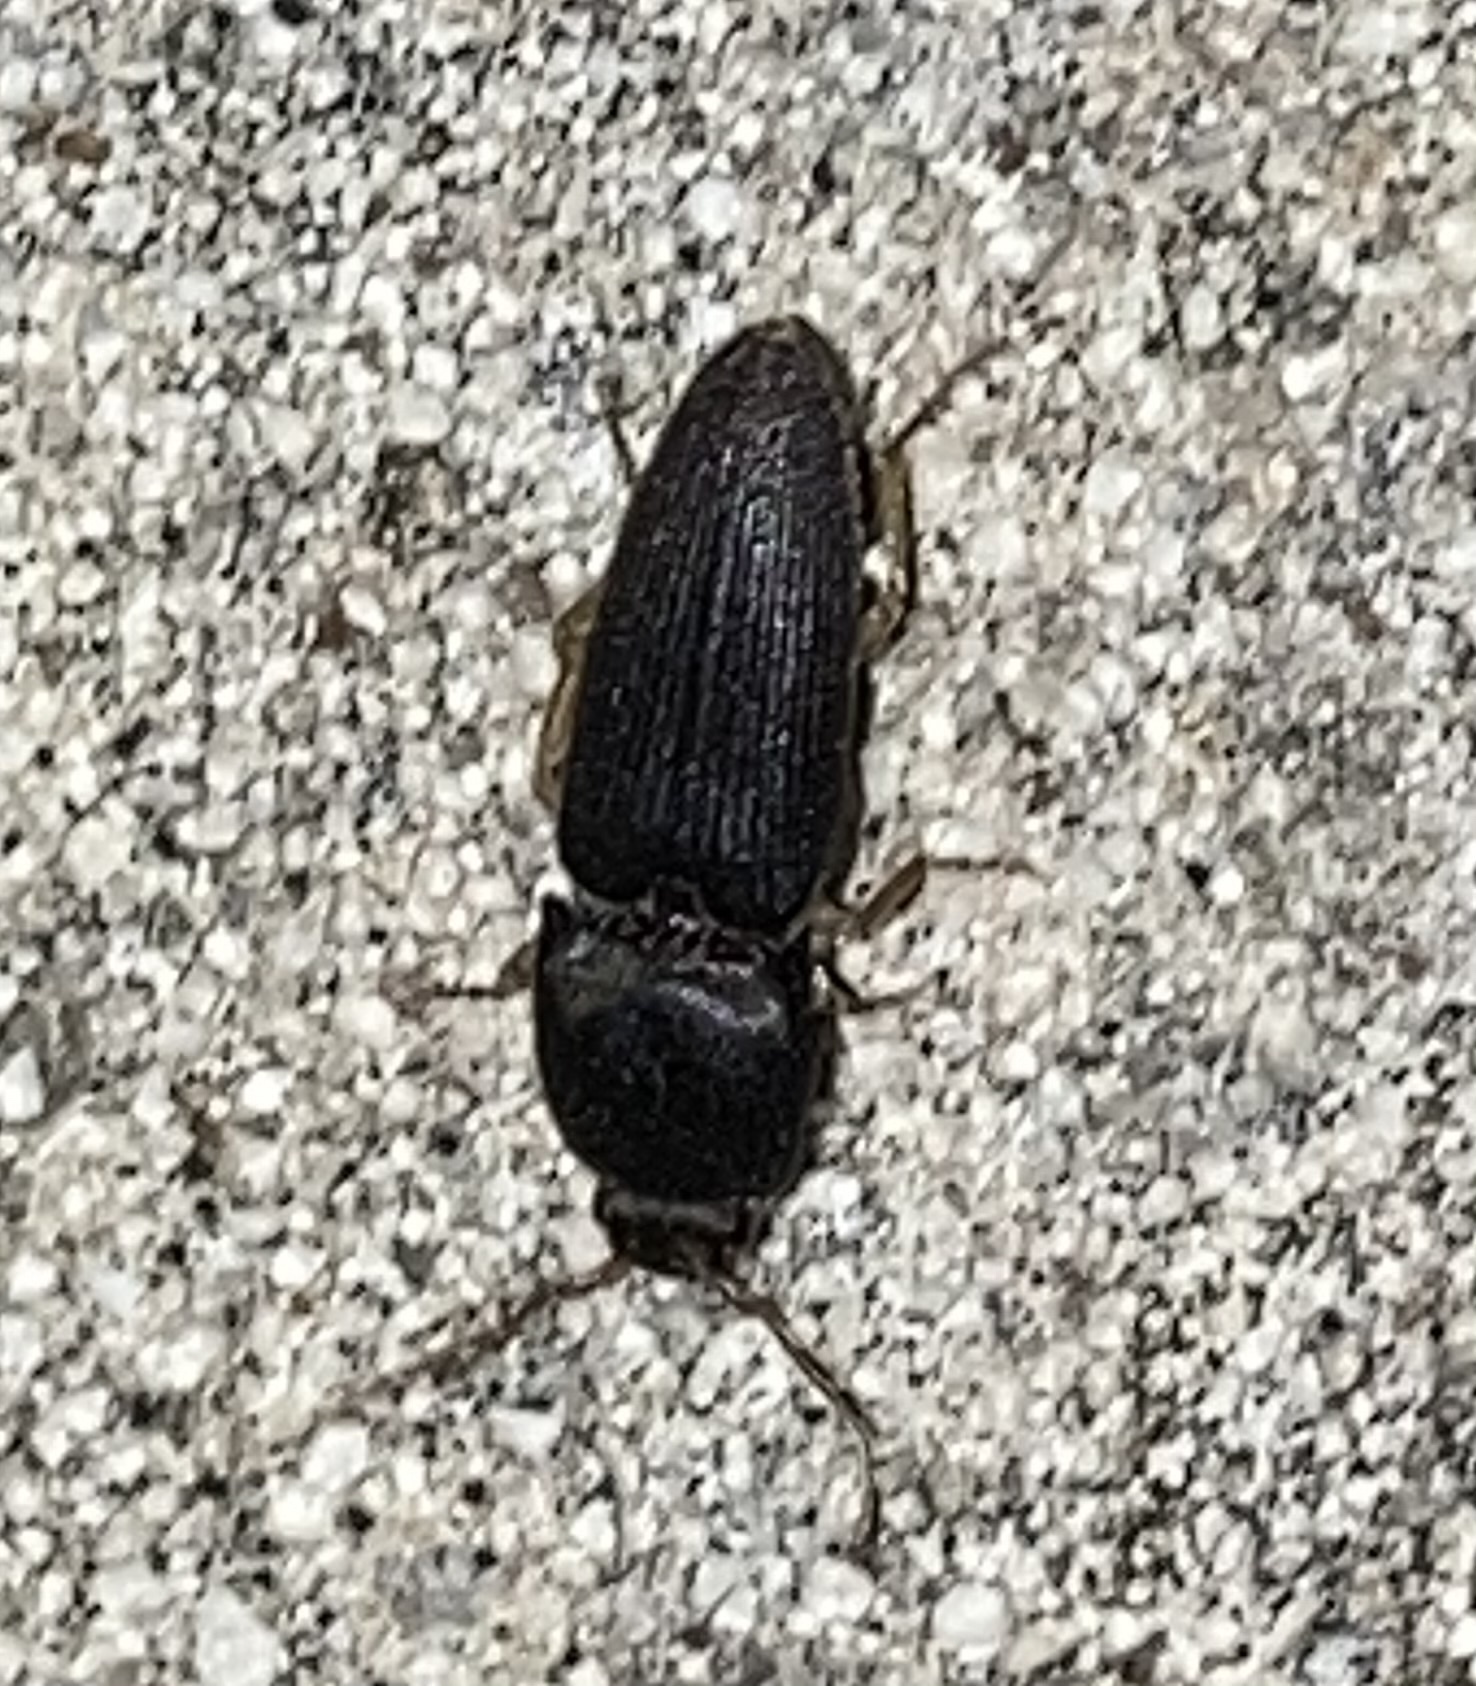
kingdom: Animalia
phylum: Arthropoda
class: Insecta
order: Coleoptera
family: Elateridae
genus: Heteroderes
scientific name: Heteroderes amplicollis
